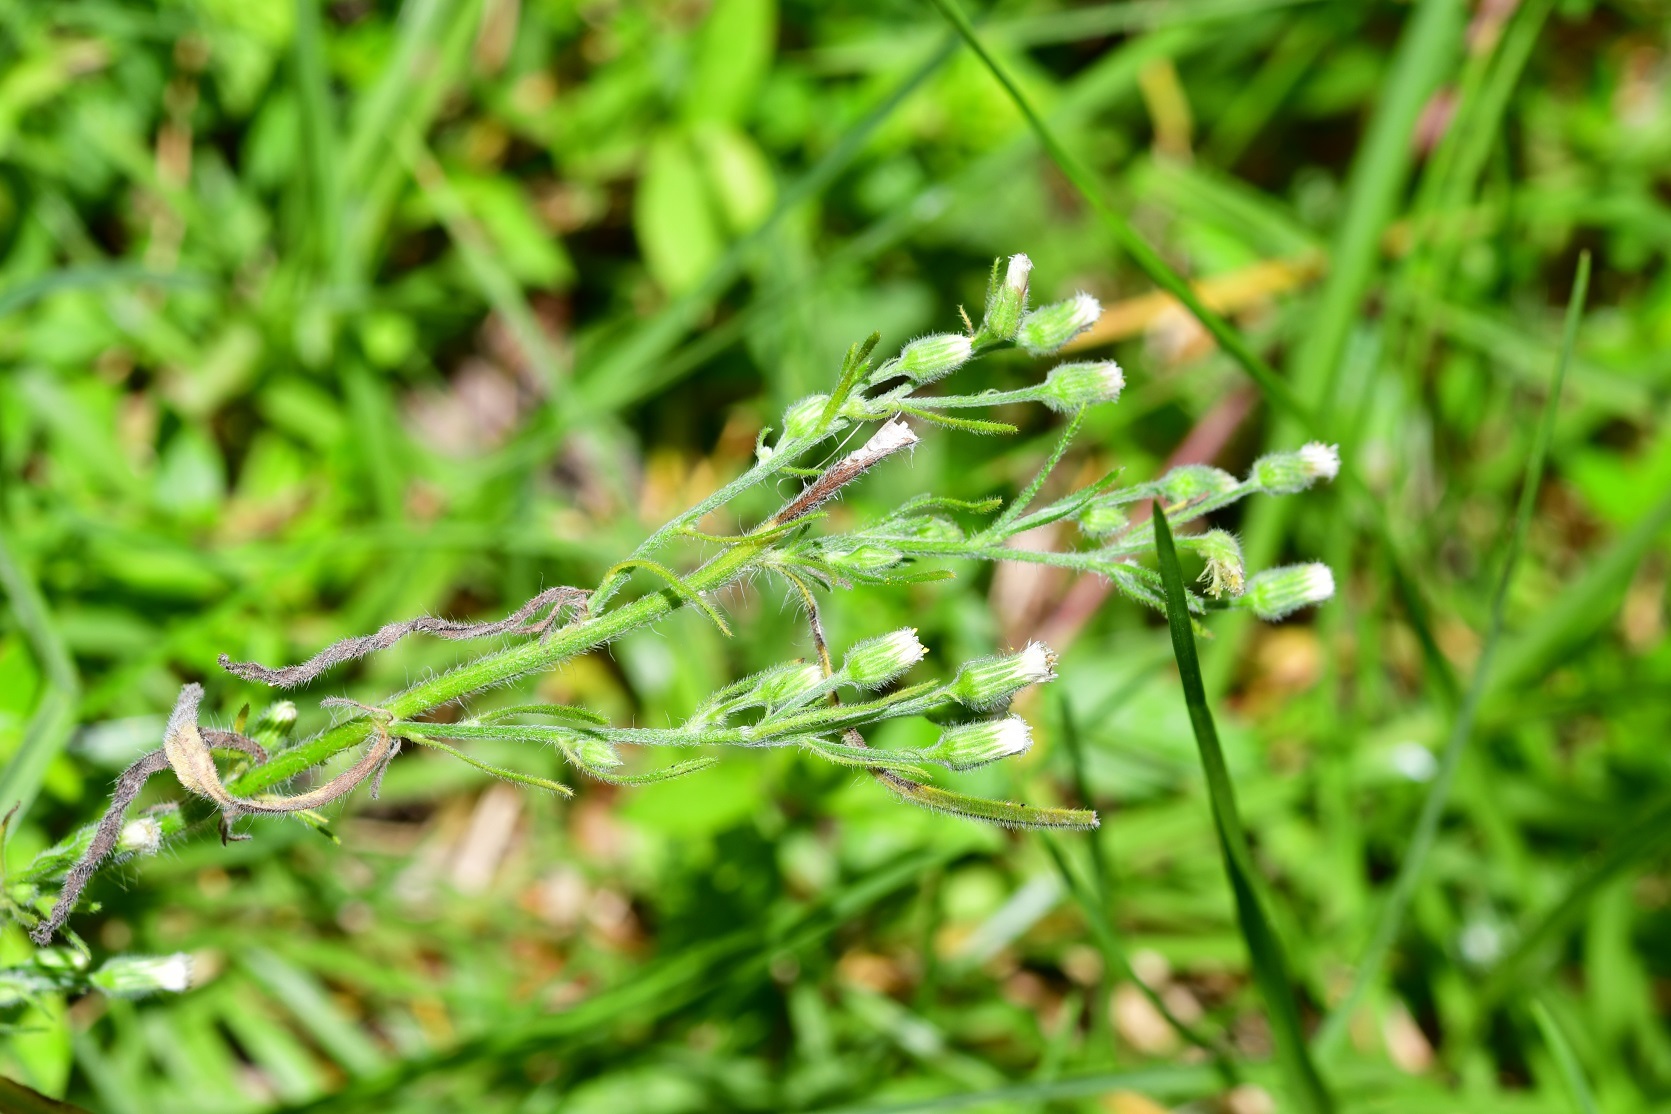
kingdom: Plantae
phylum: Tracheophyta
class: Magnoliopsida
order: Asterales
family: Asteraceae
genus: Laennecia
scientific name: Laennecia sophiifolia
